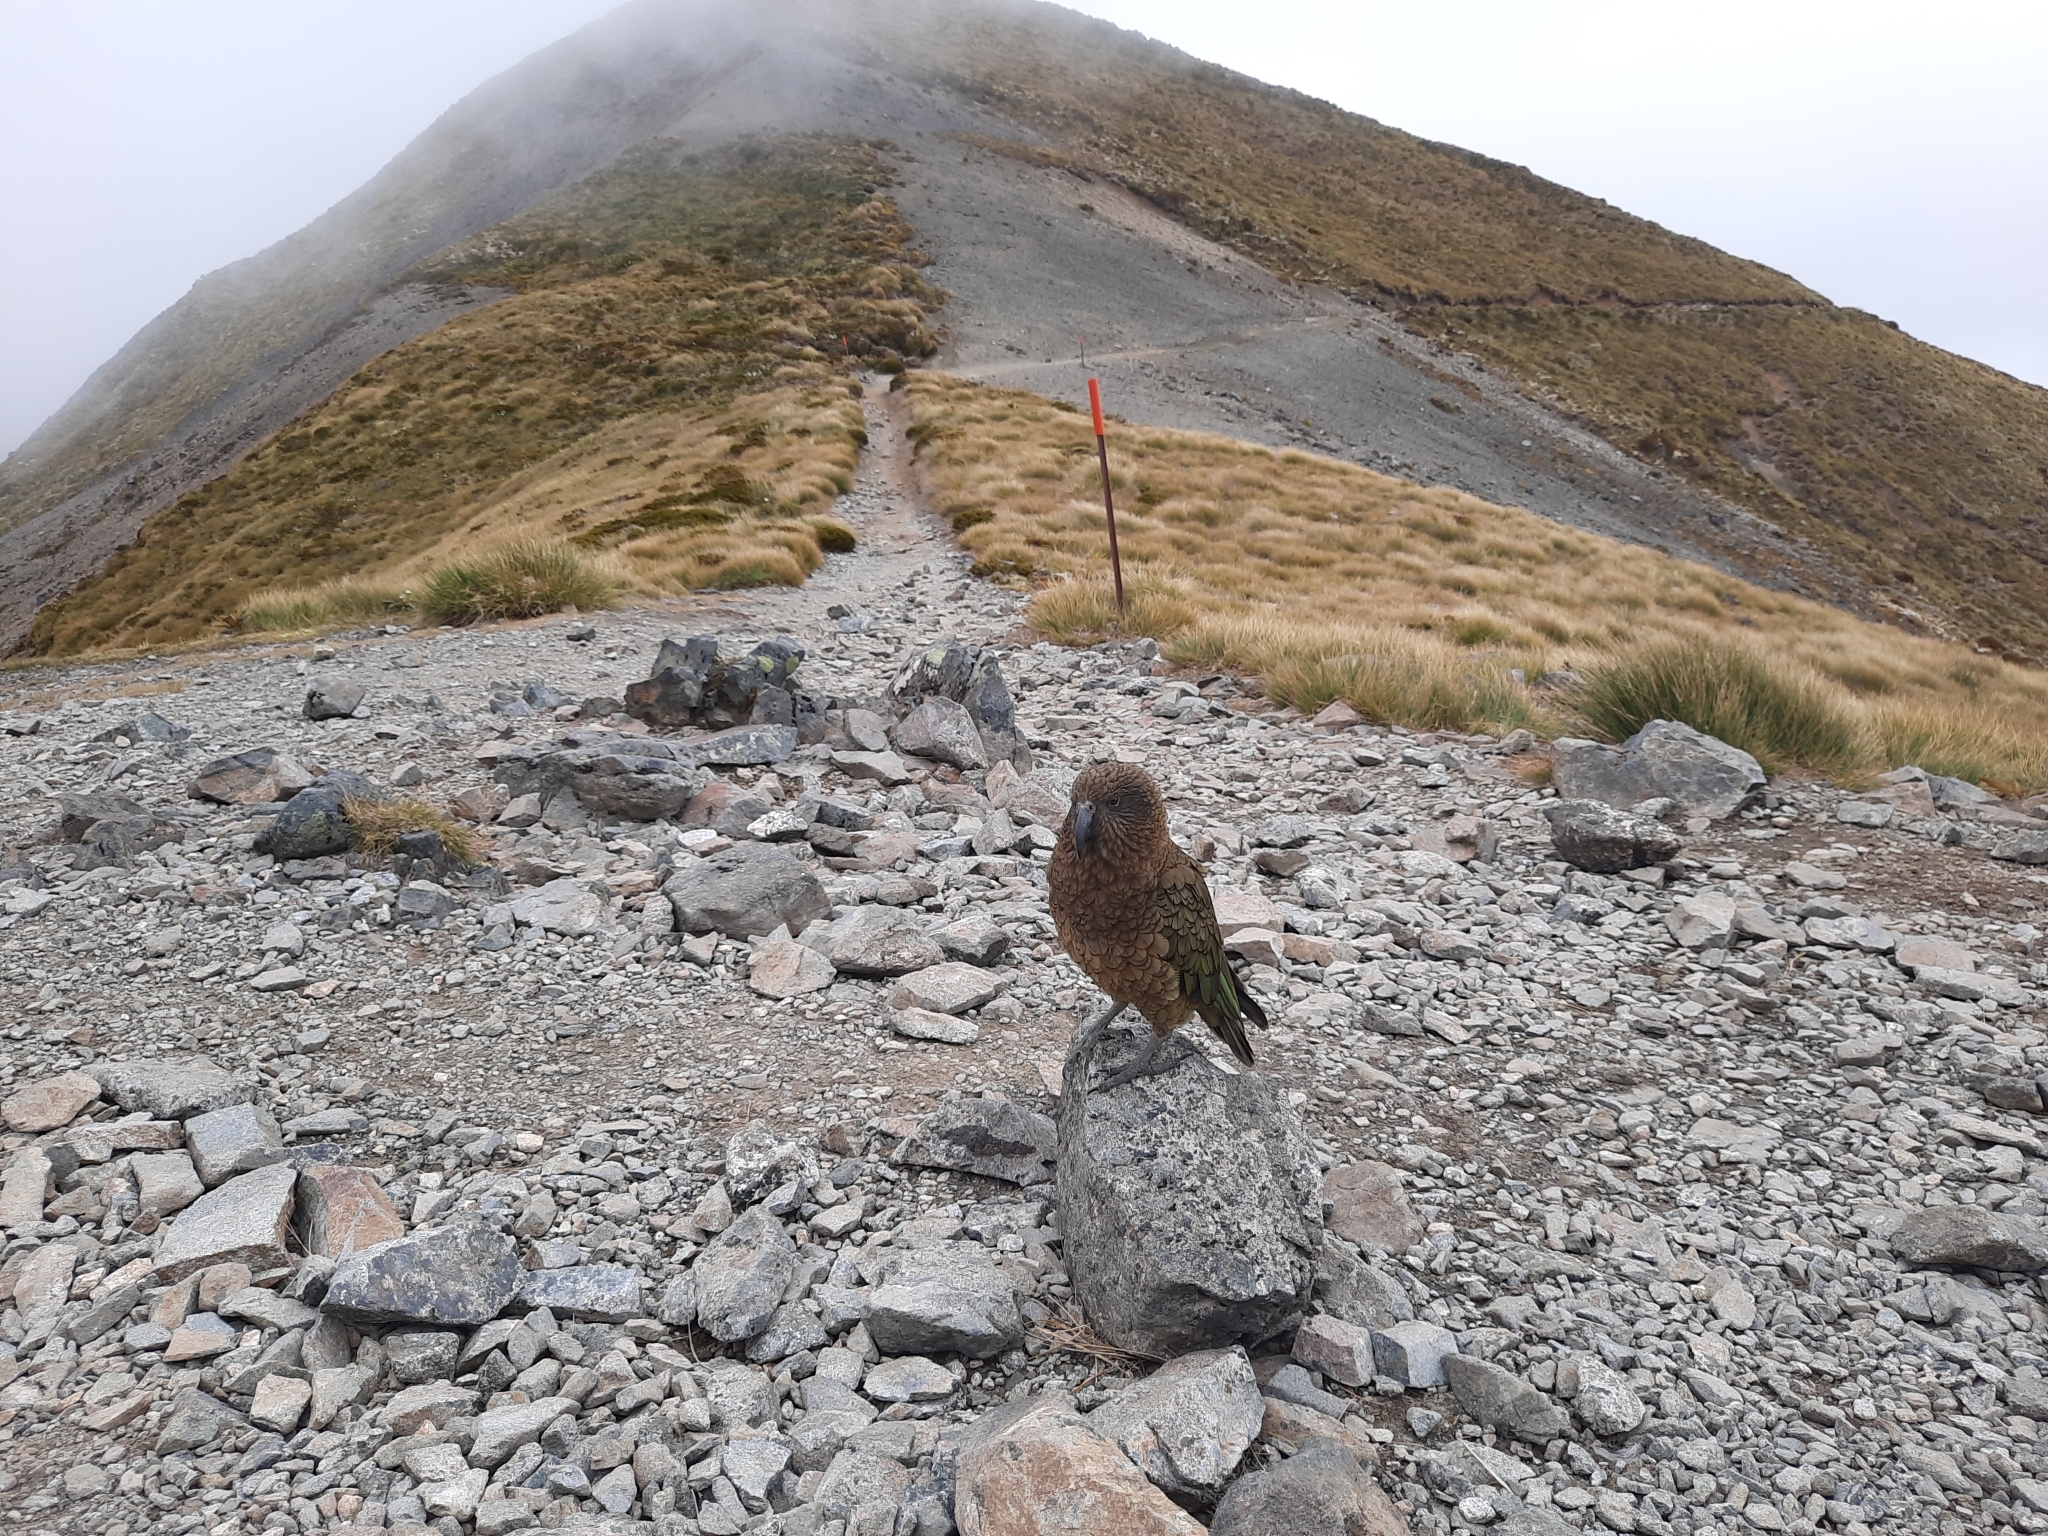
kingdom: Animalia
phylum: Chordata
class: Aves
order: Psittaciformes
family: Psittacidae
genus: Nestor
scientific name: Nestor notabilis
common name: Kea
